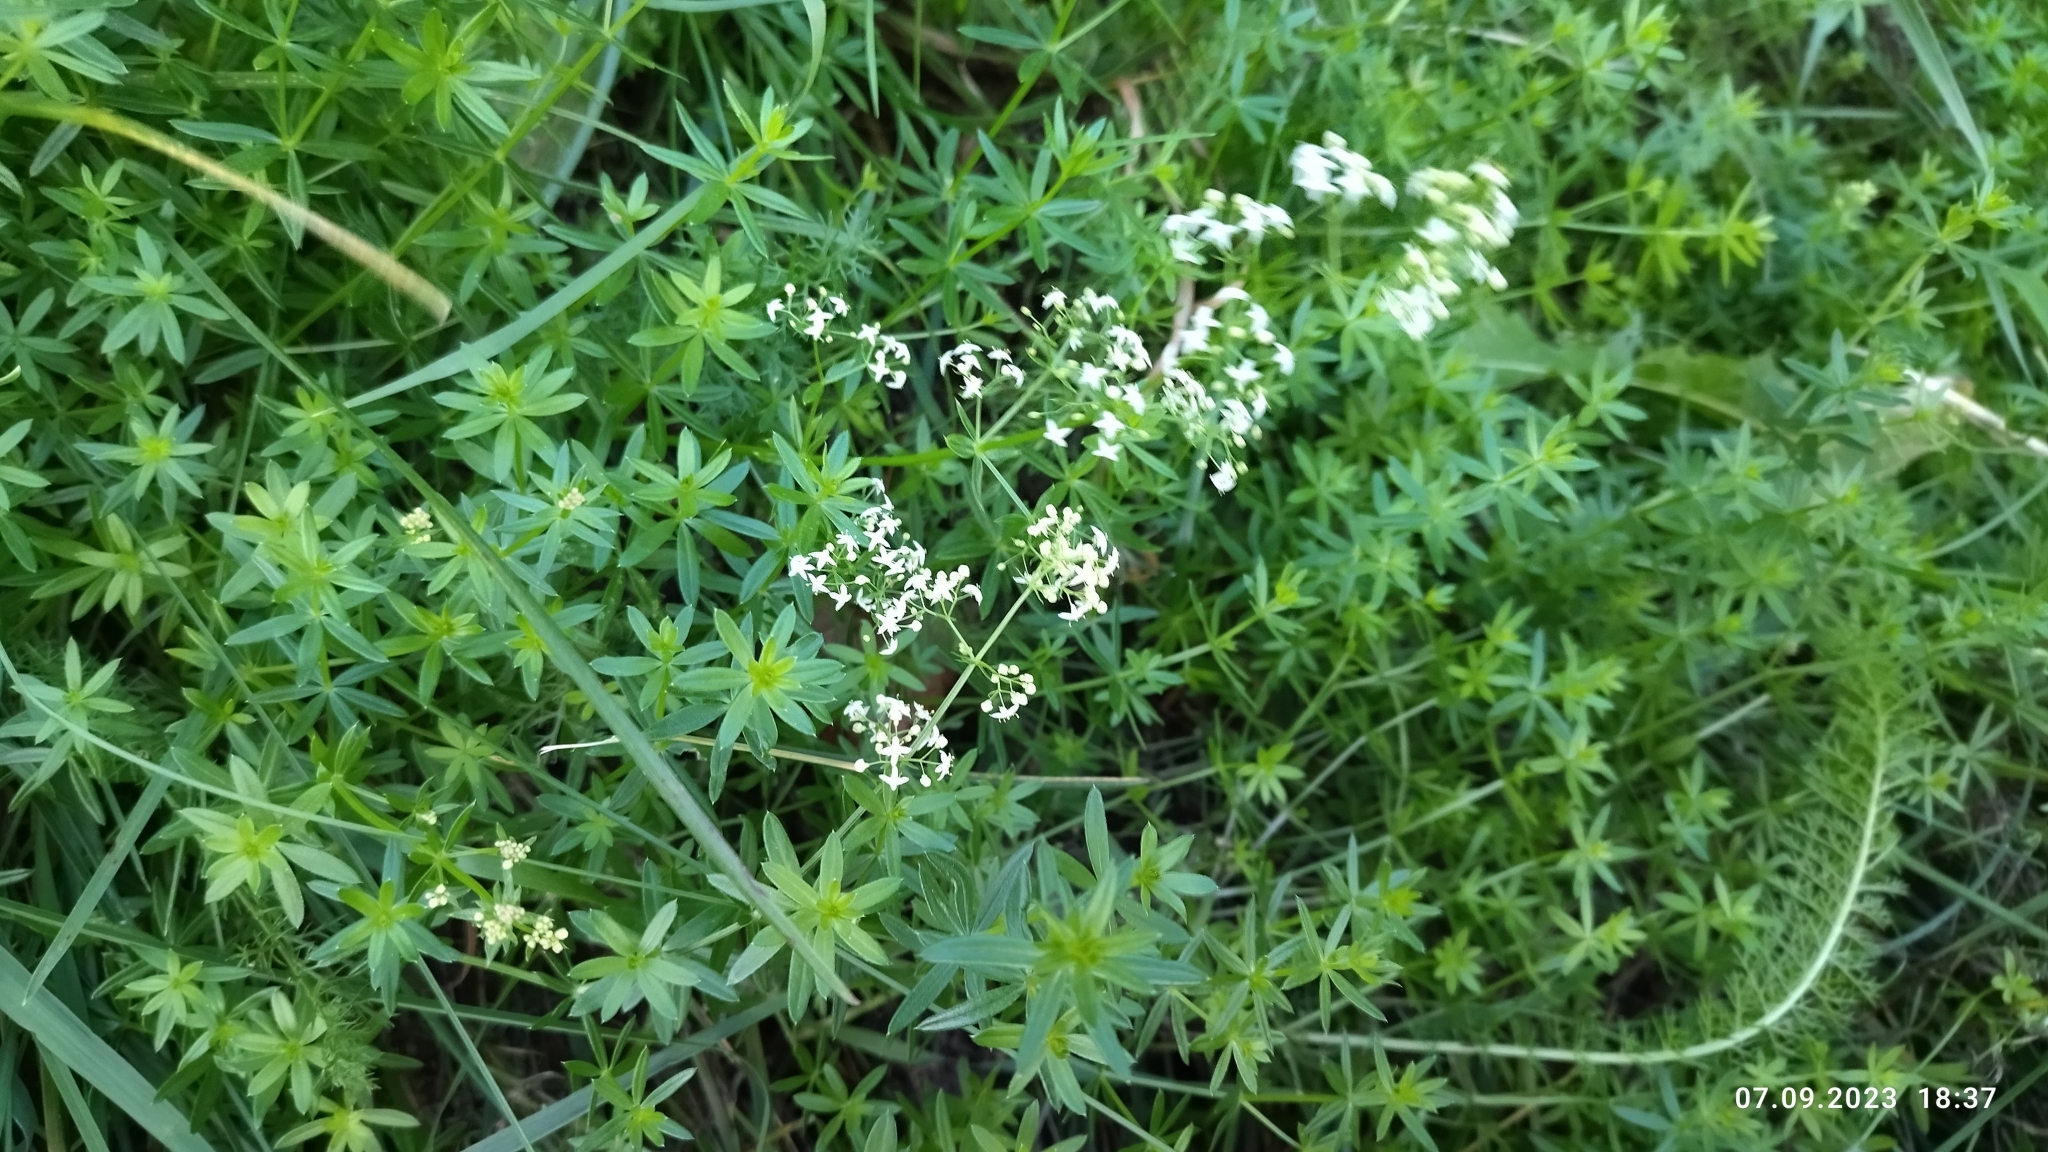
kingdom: Plantae
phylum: Tracheophyta
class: Magnoliopsida
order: Gentianales
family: Rubiaceae
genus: Galium
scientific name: Galium mollugo
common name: Hedge bedstraw
